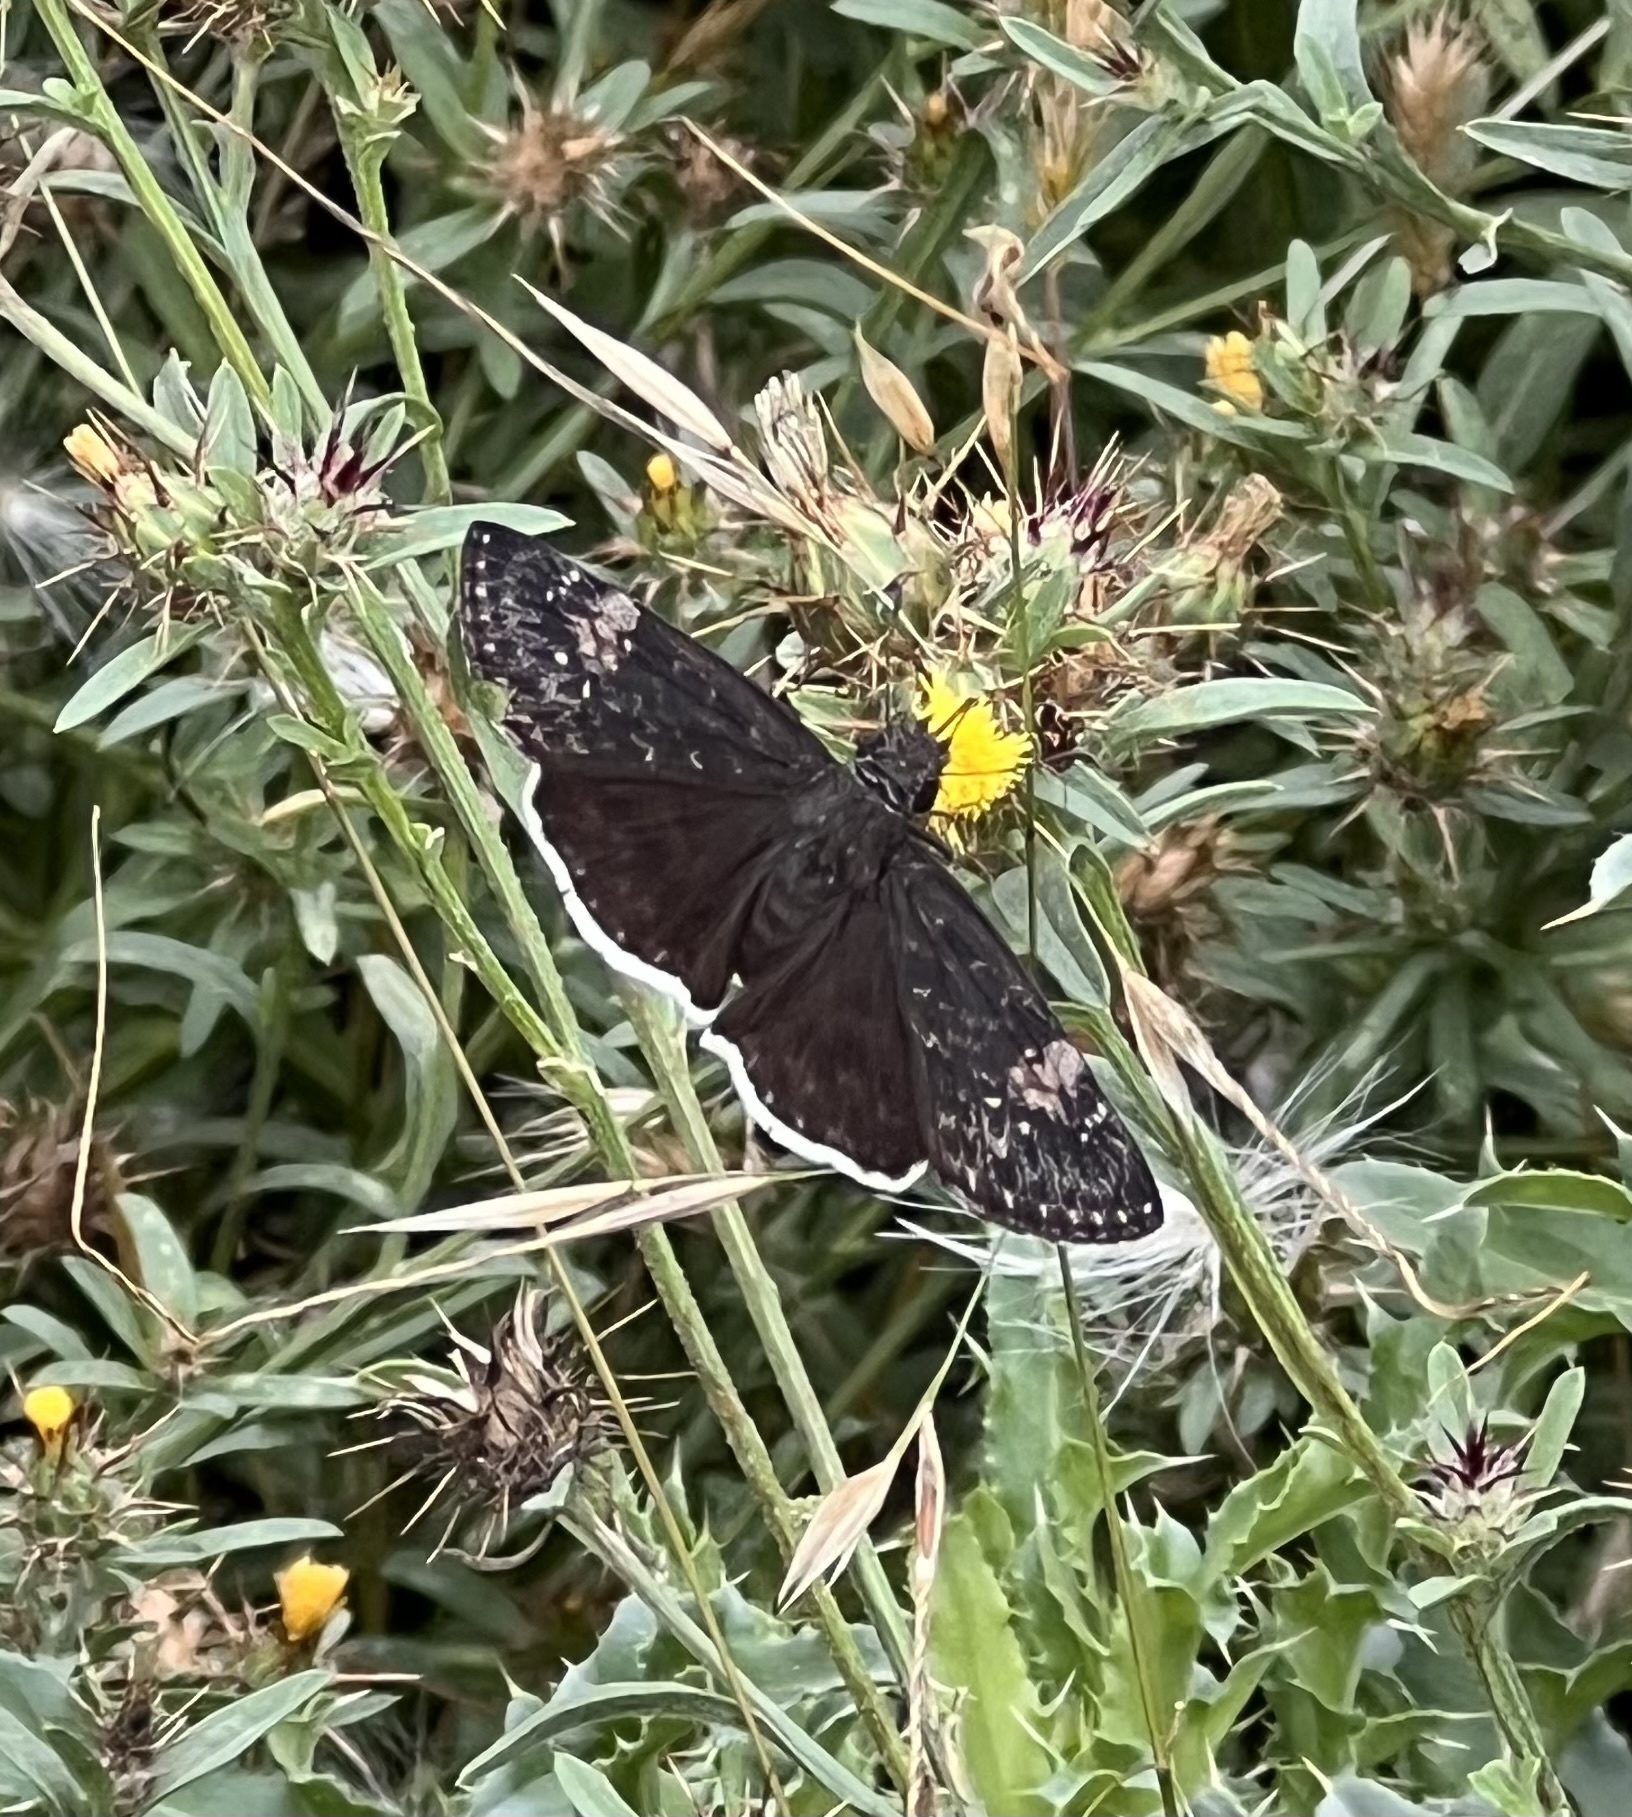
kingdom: Animalia
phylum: Arthropoda
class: Insecta
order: Lepidoptera
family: Hesperiidae
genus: Erynnis
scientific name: Erynnis funeralis
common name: Funereal duskywing
